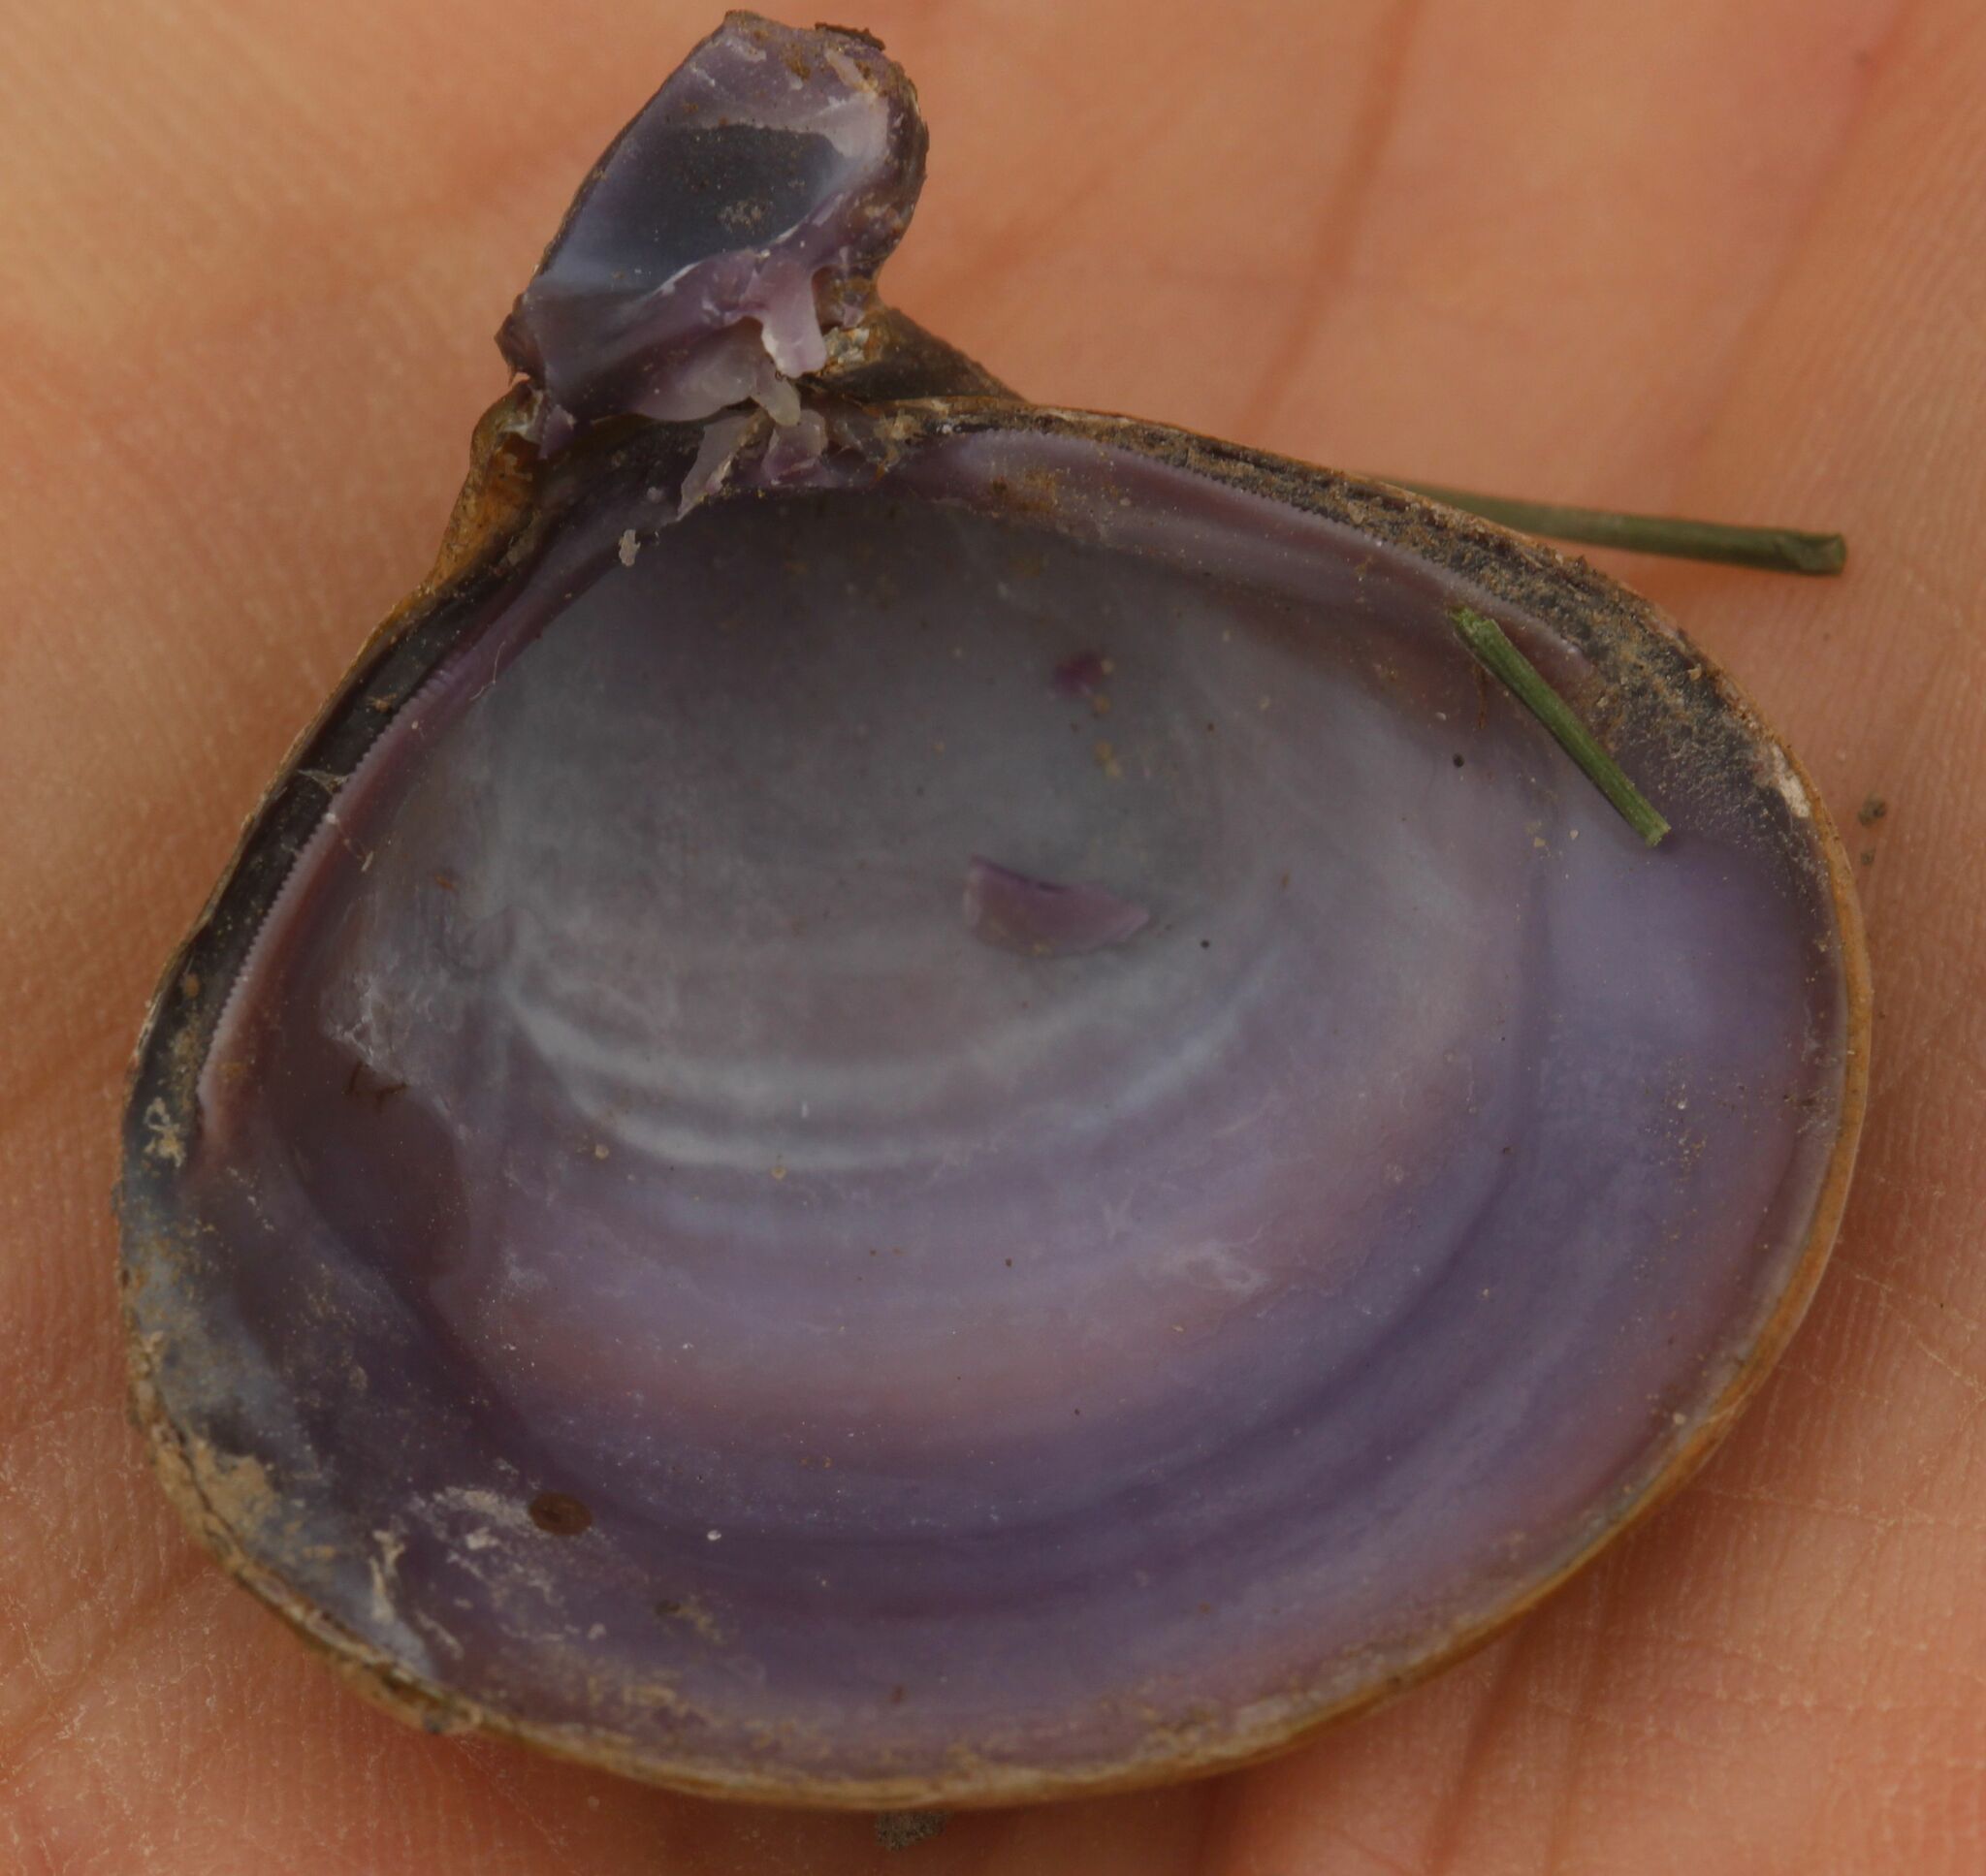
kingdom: Animalia
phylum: Mollusca
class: Bivalvia
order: Venerida
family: Cyrenidae
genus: Corbicula
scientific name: Corbicula fluminea
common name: Asian clam
